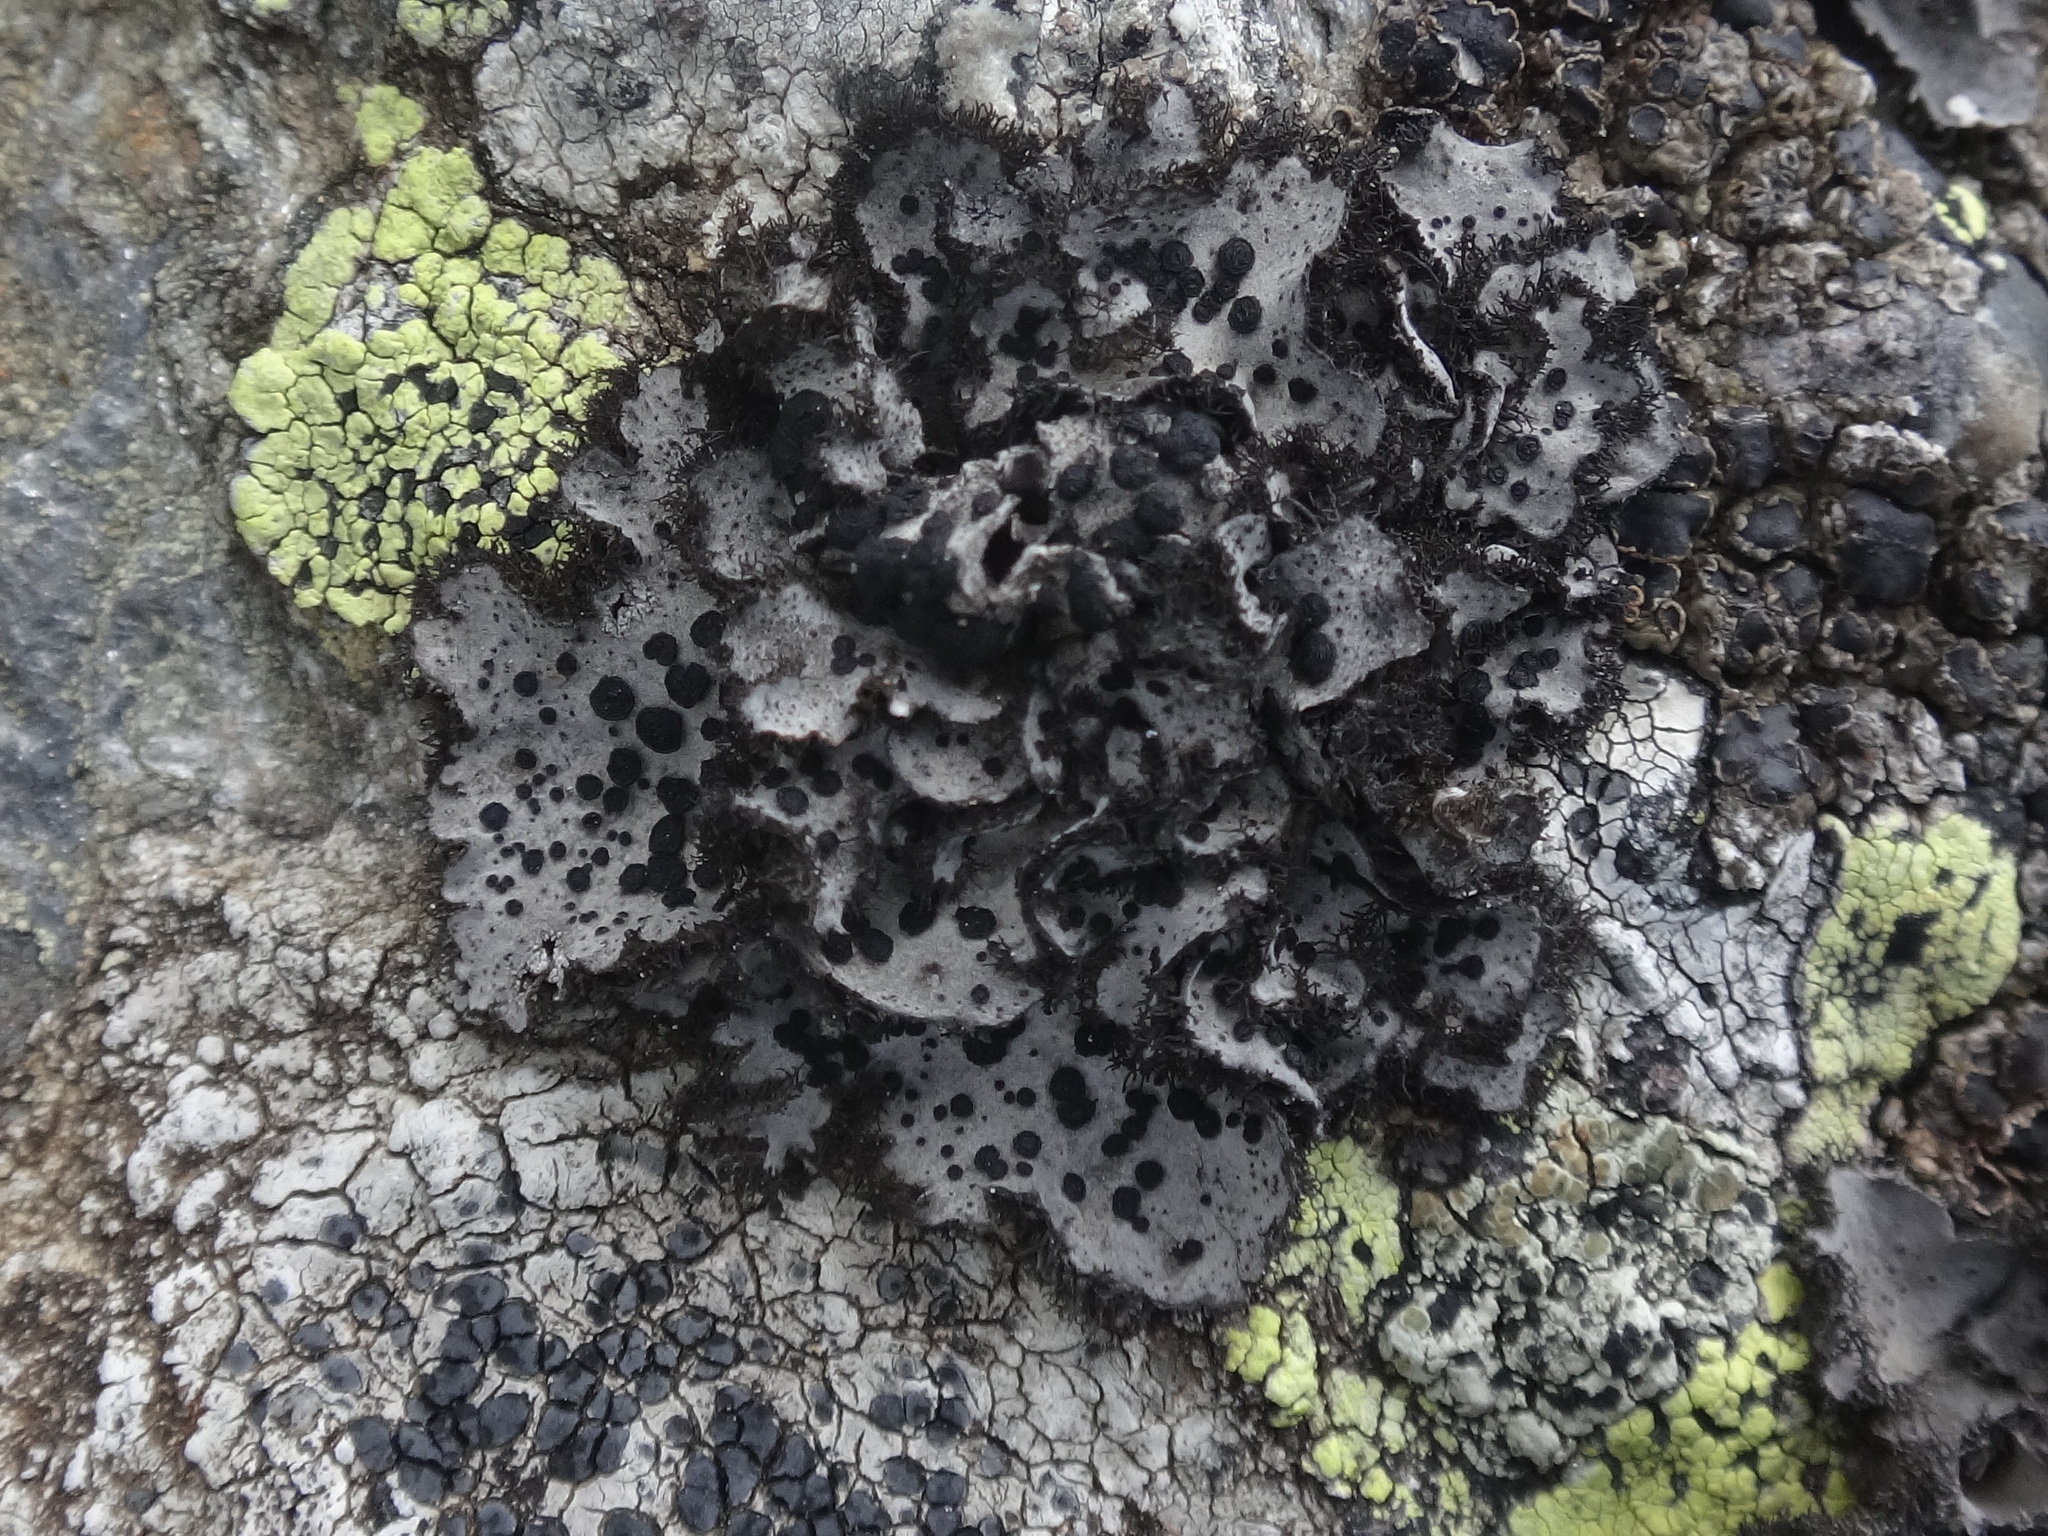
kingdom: Fungi
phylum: Ascomycota
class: Lecanoromycetes
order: Umbilicariales
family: Umbilicariaceae
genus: Umbilicaria
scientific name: Umbilicaria cylindrica
